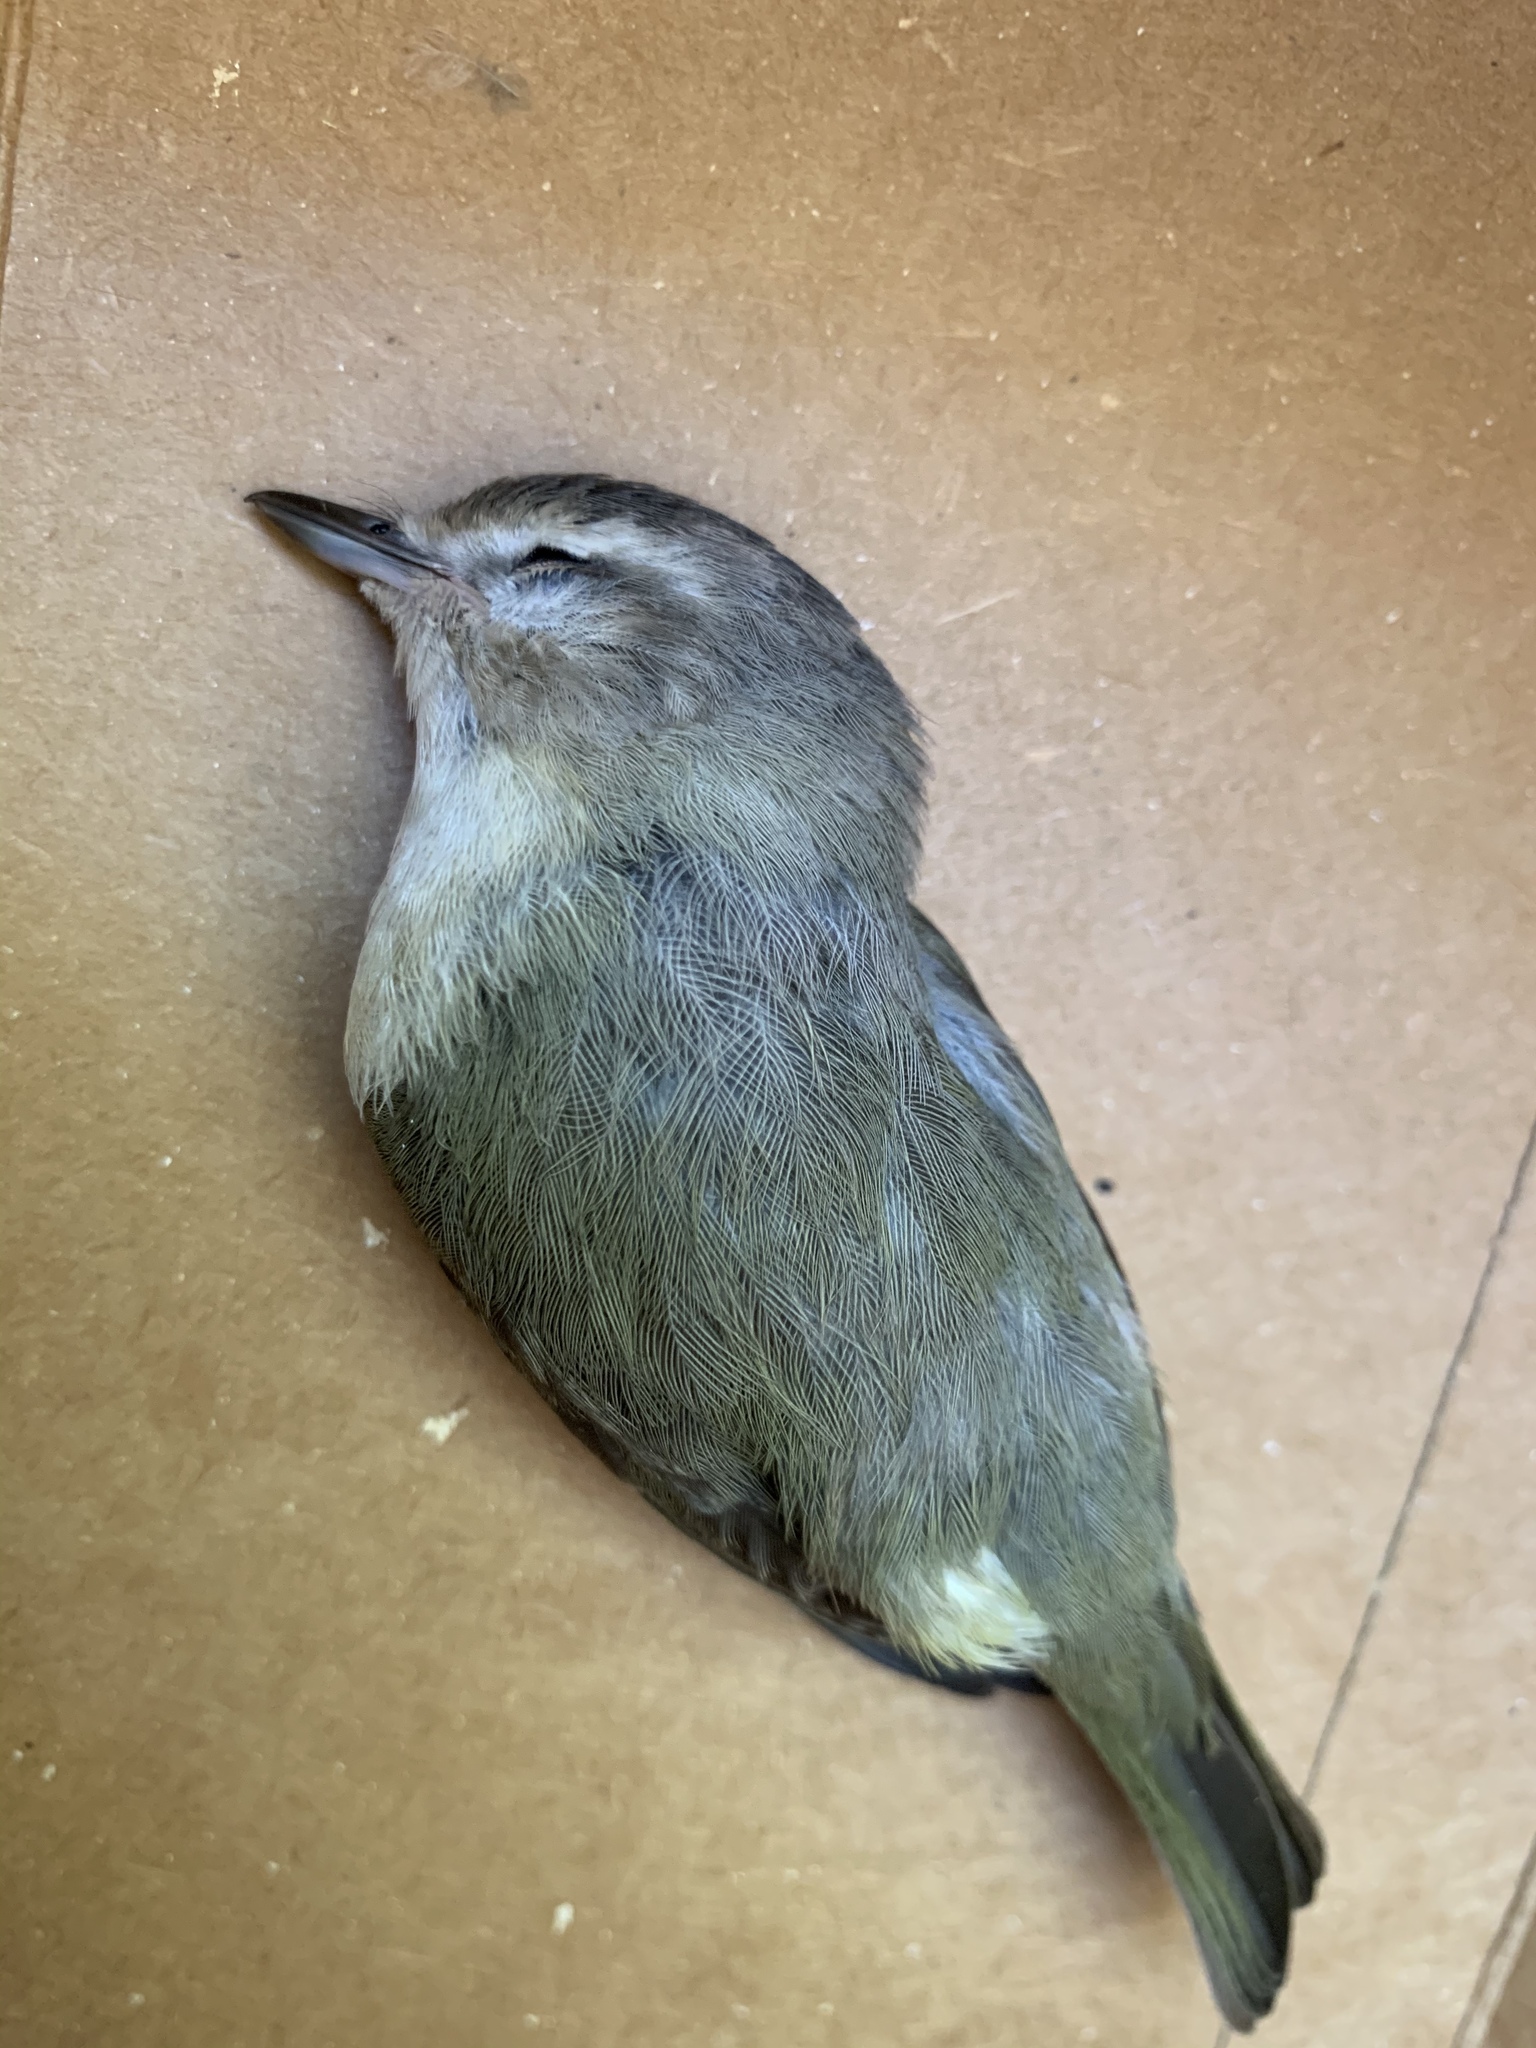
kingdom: Animalia
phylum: Chordata
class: Aves
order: Passeriformes
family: Vireonidae
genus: Vireo
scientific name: Vireo gilvus
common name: Warbling vireo
